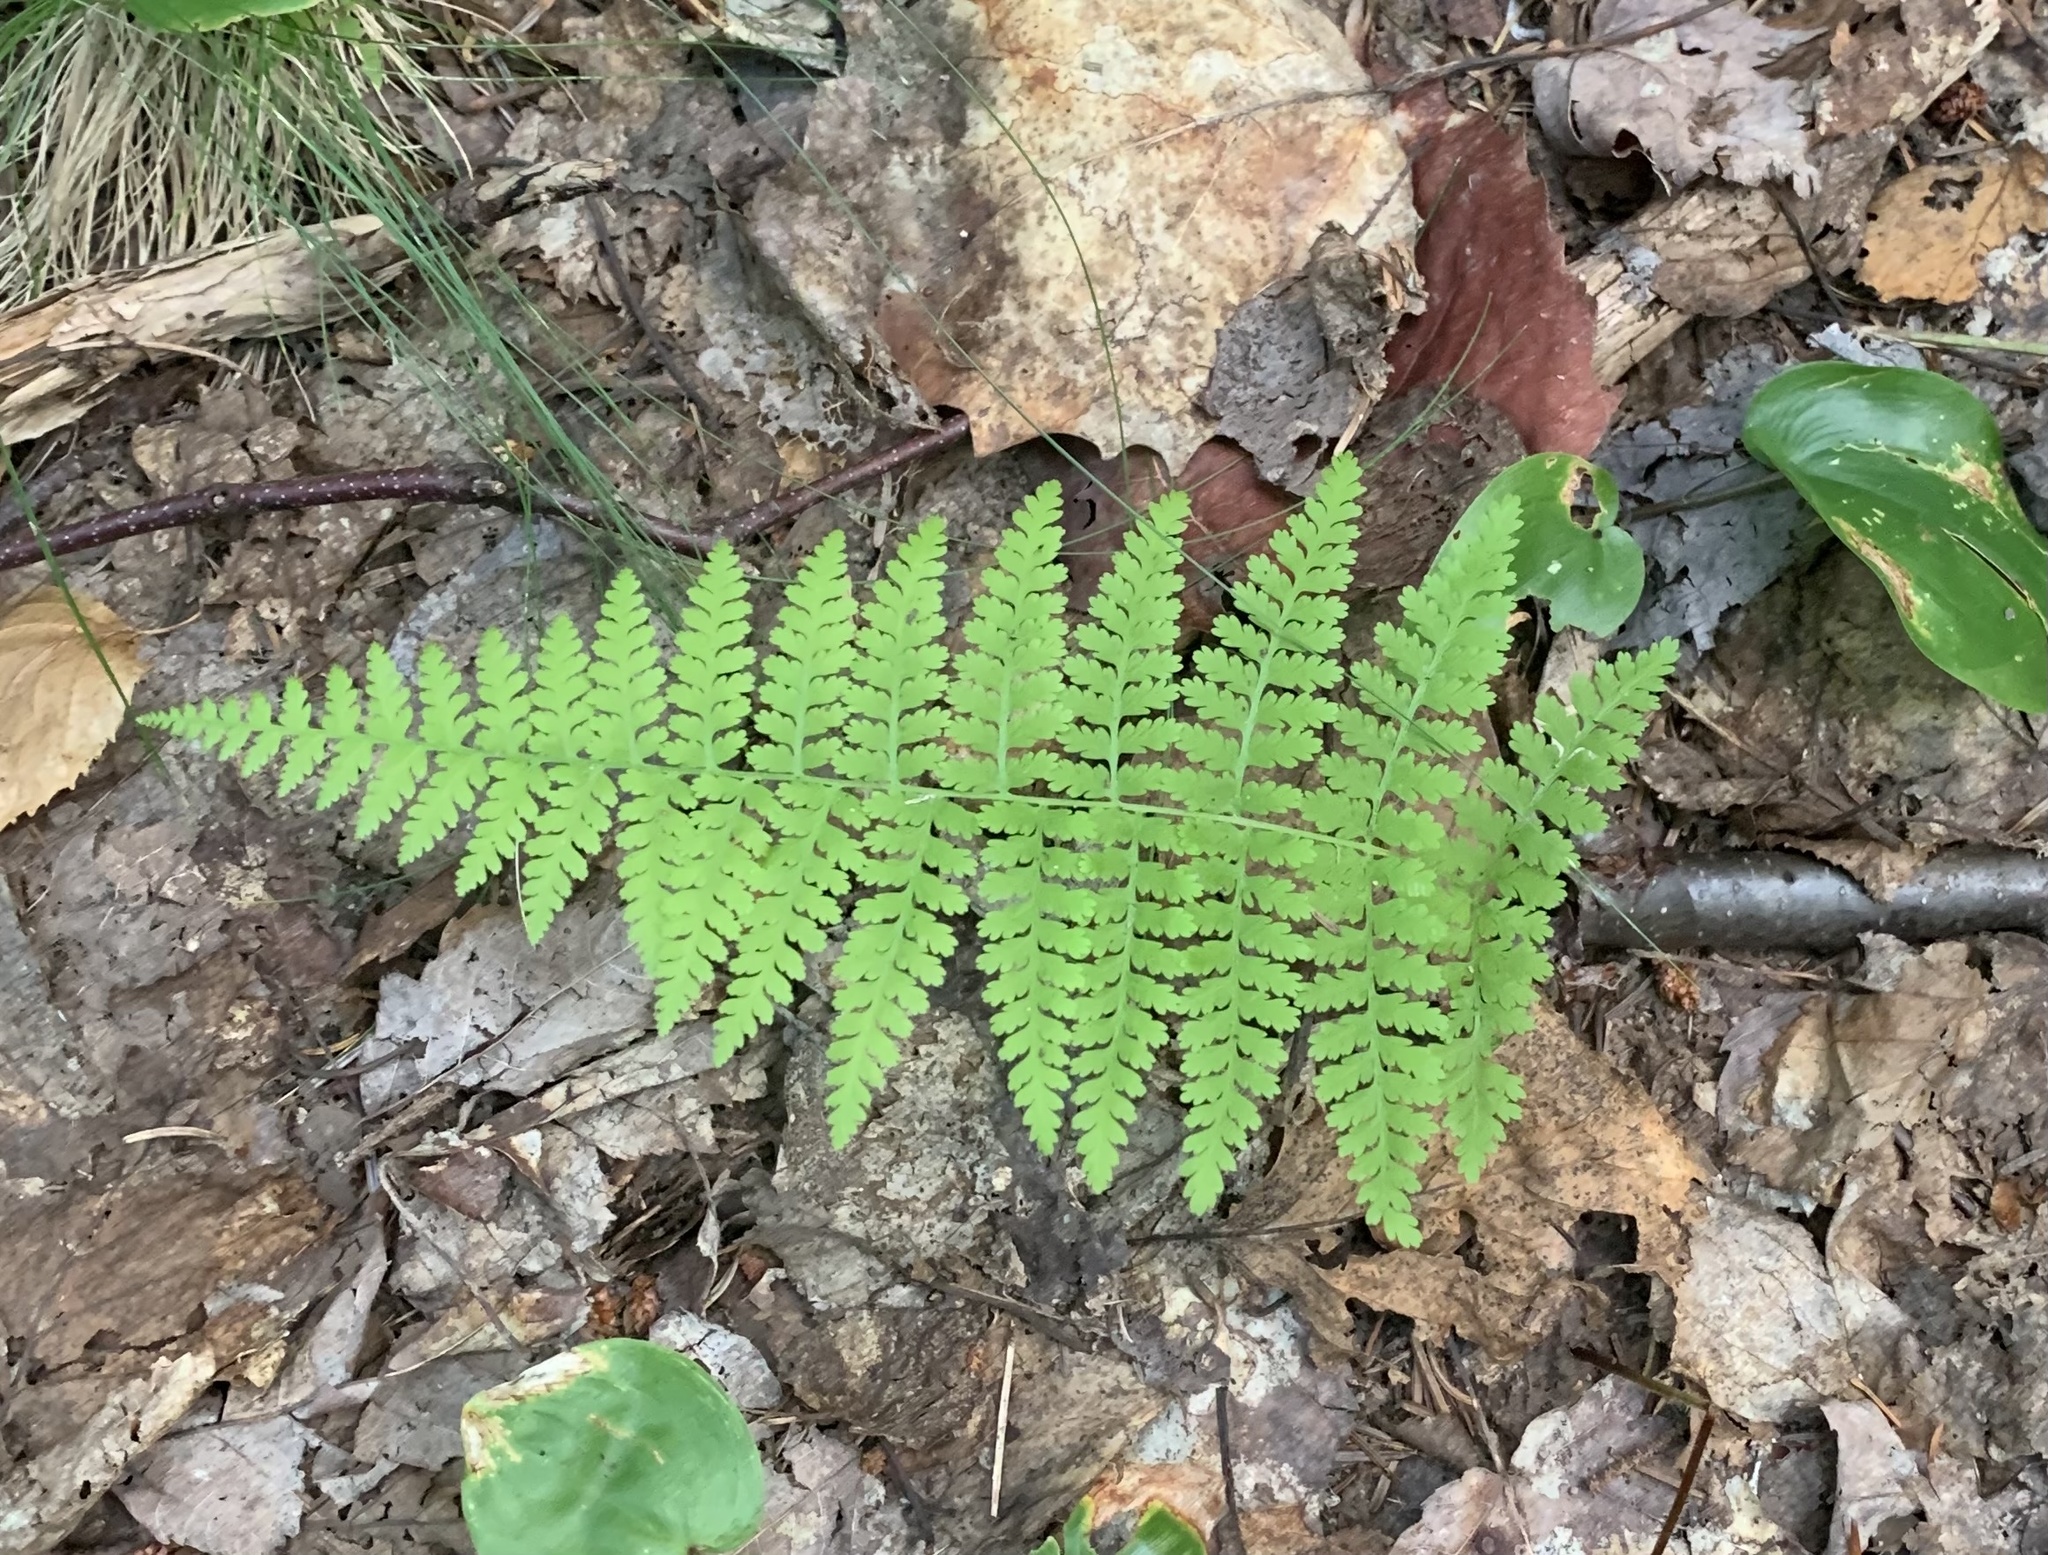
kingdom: Plantae
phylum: Tracheophyta
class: Polypodiopsida
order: Polypodiales
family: Dennstaedtiaceae
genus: Sitobolium
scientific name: Sitobolium punctilobum
